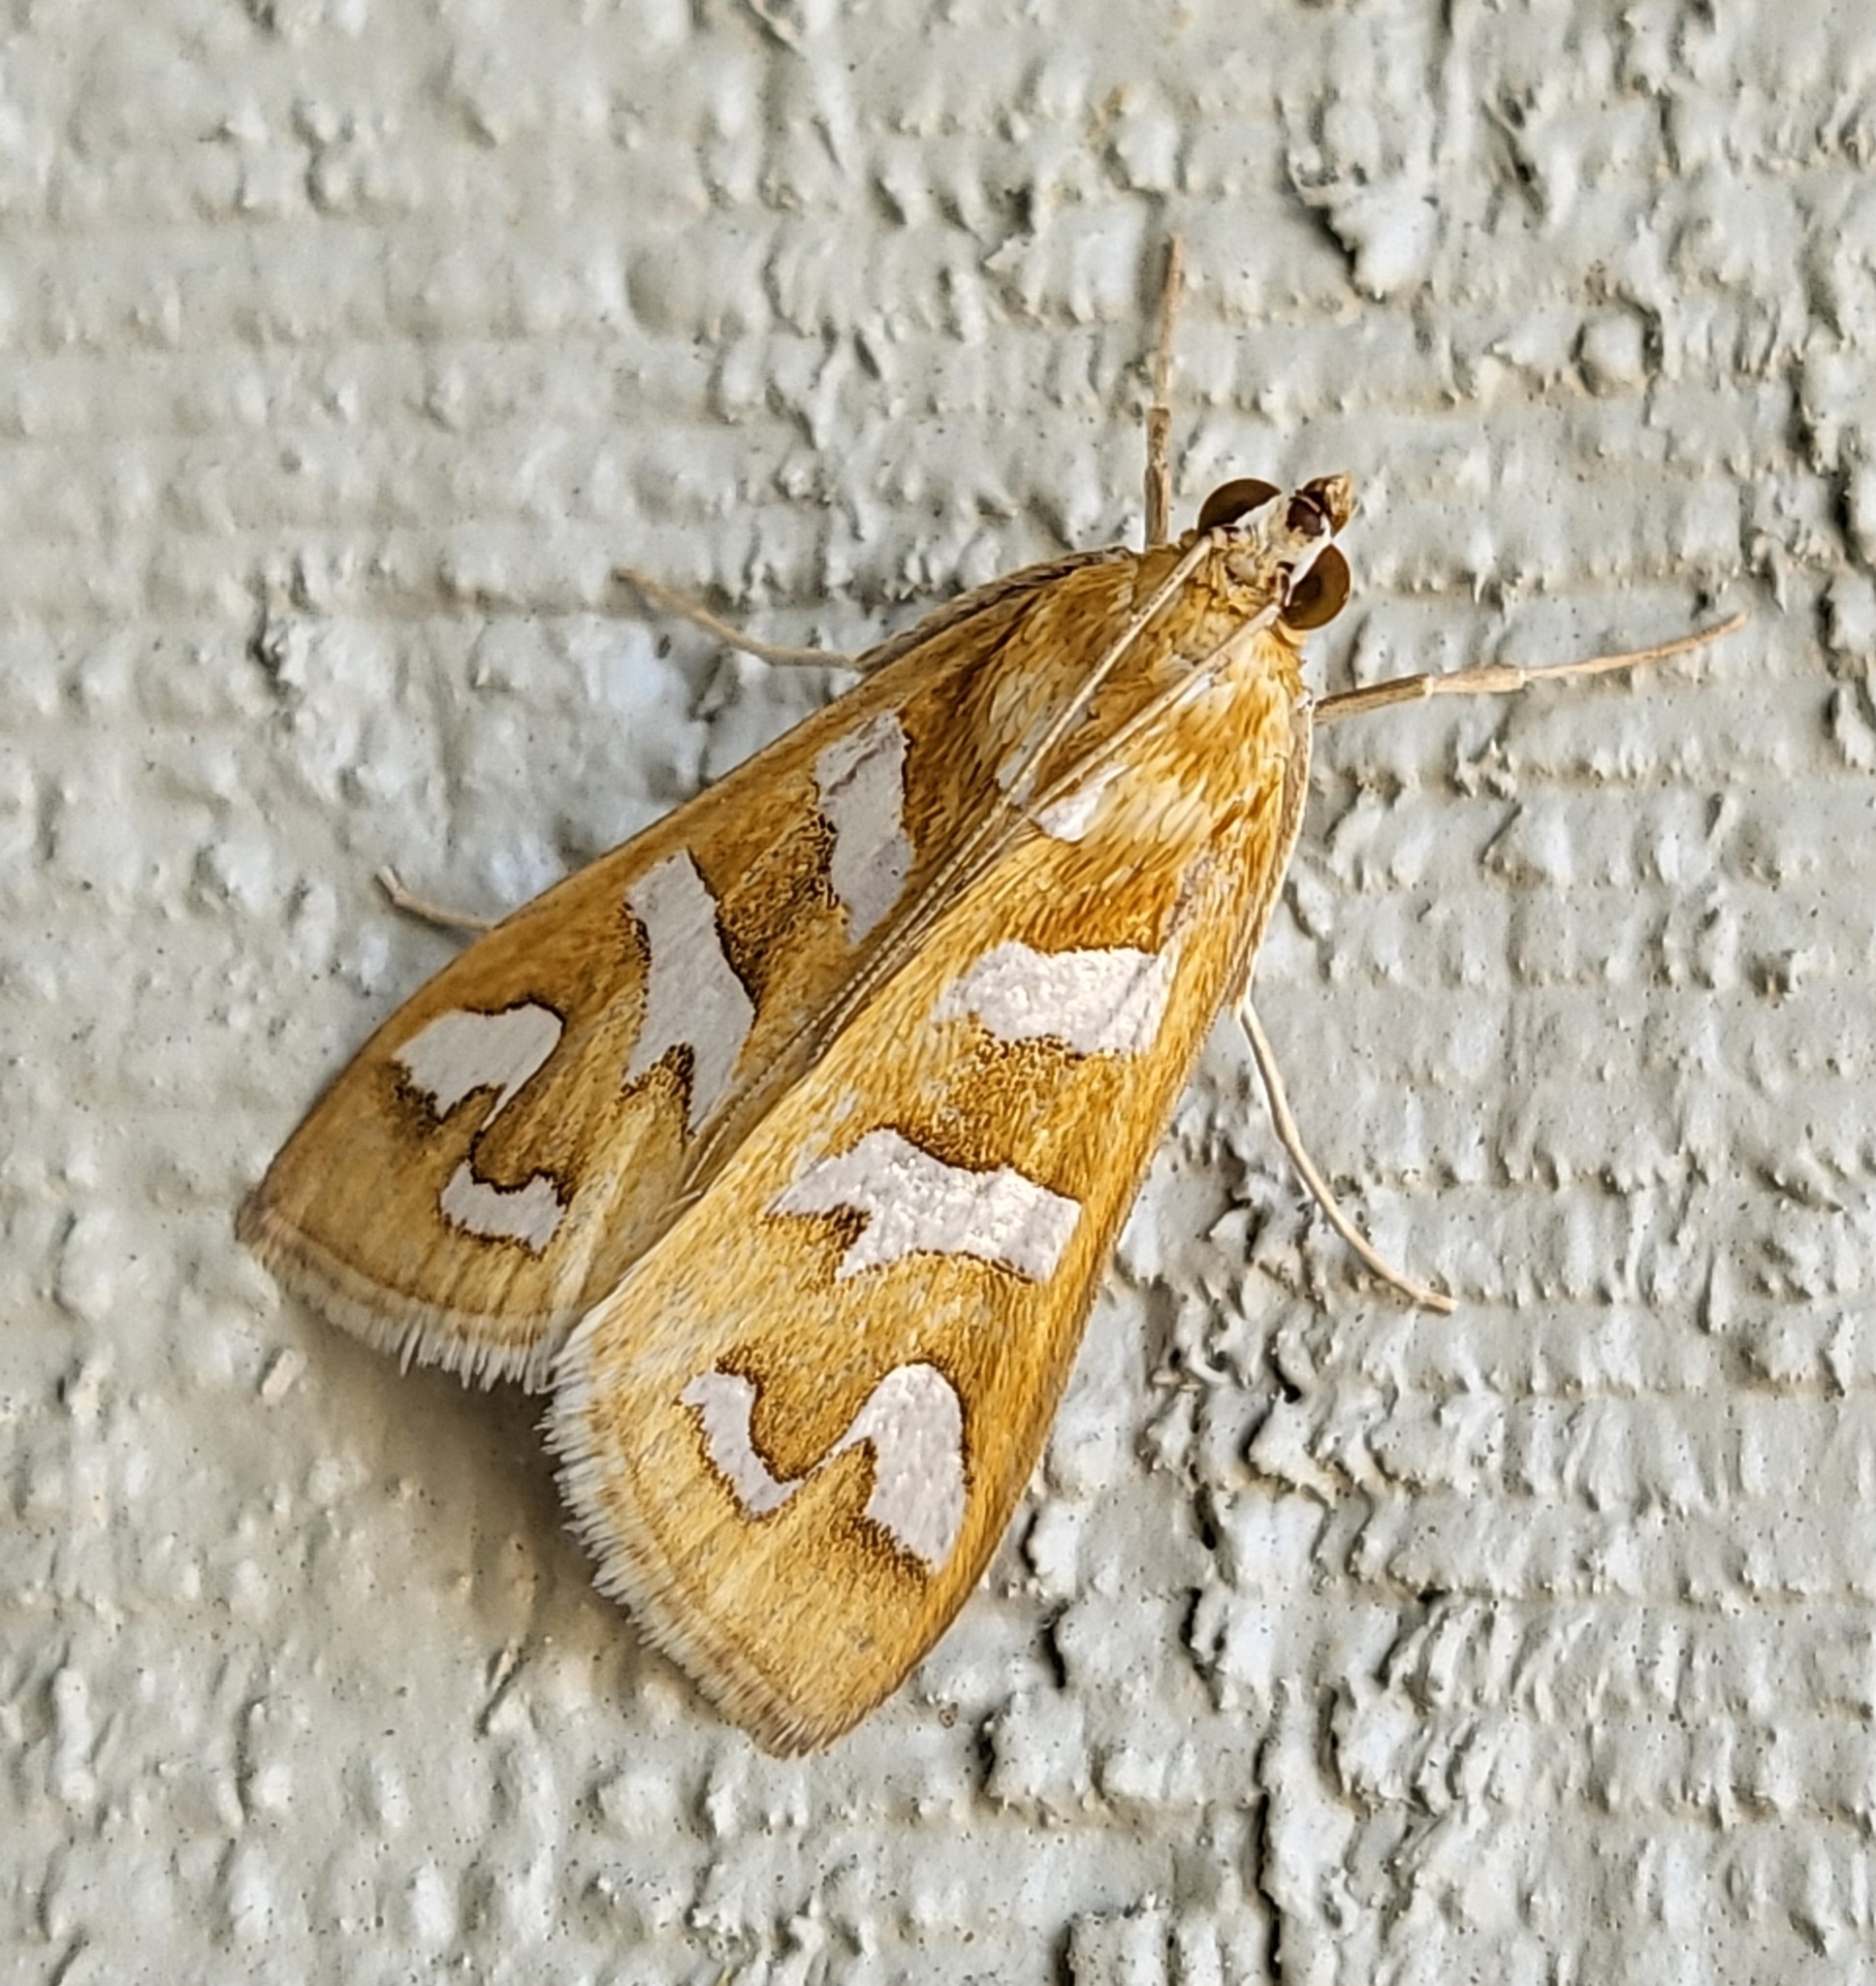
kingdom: Animalia
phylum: Arthropoda
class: Insecta
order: Lepidoptera
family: Crambidae
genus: Diastictis
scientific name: Diastictis fracturalis
